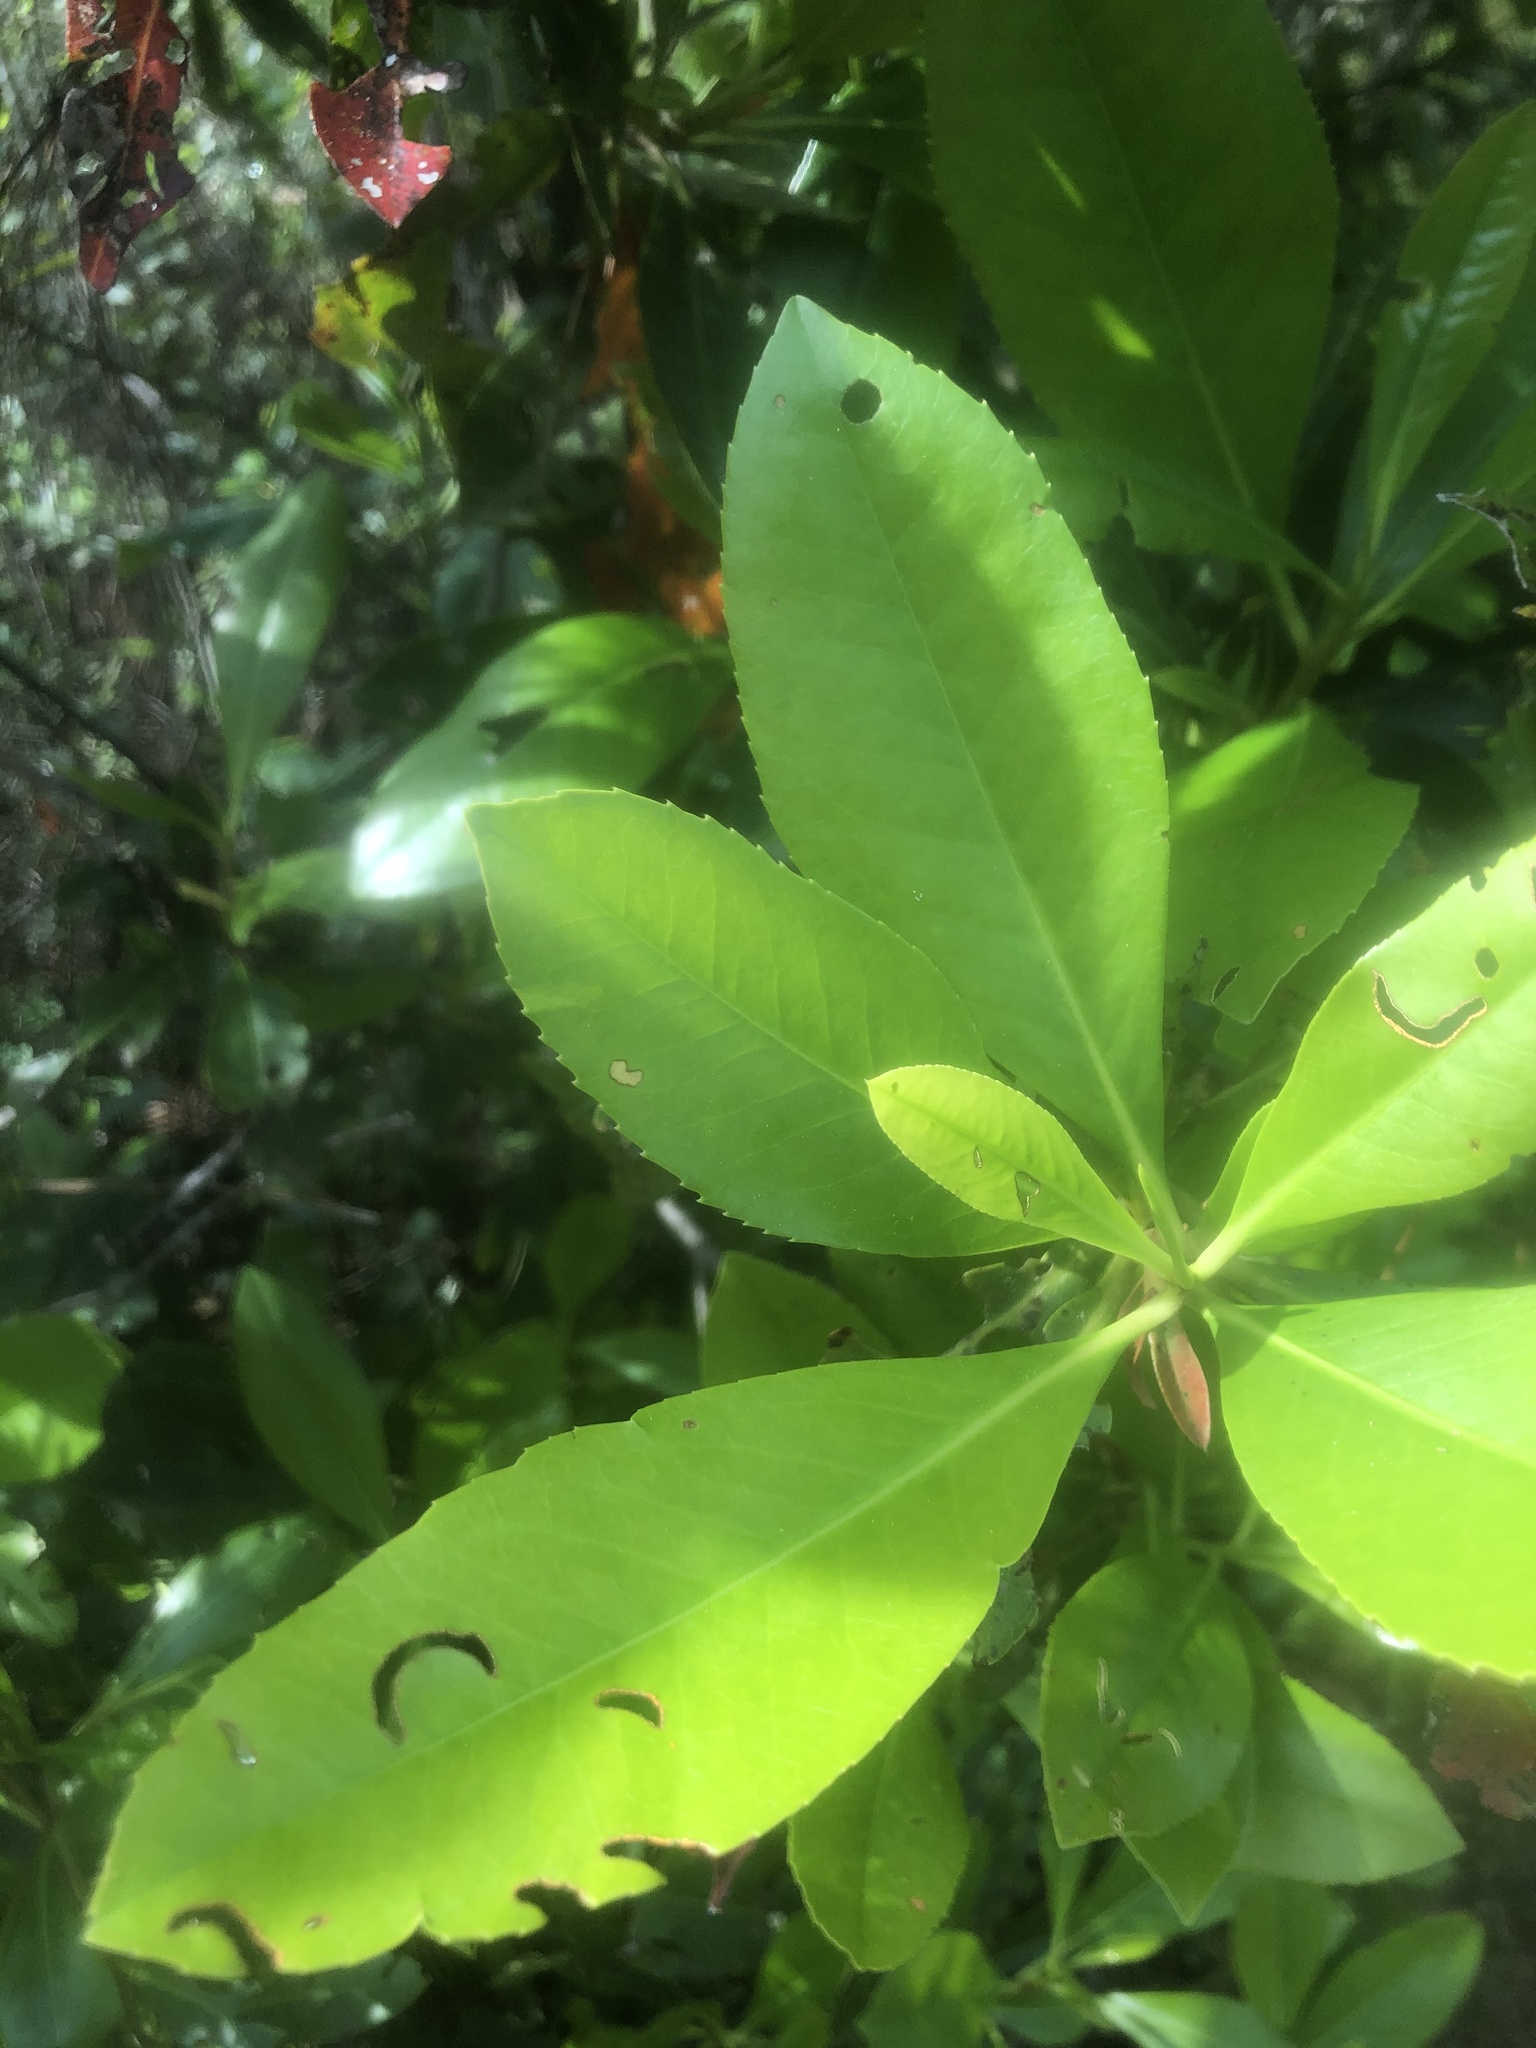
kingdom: Plantae
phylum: Tracheophyta
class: Magnoliopsida
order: Ericales
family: Theaceae
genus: Gordonia
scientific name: Gordonia lasianthus
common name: Loblolly bay
